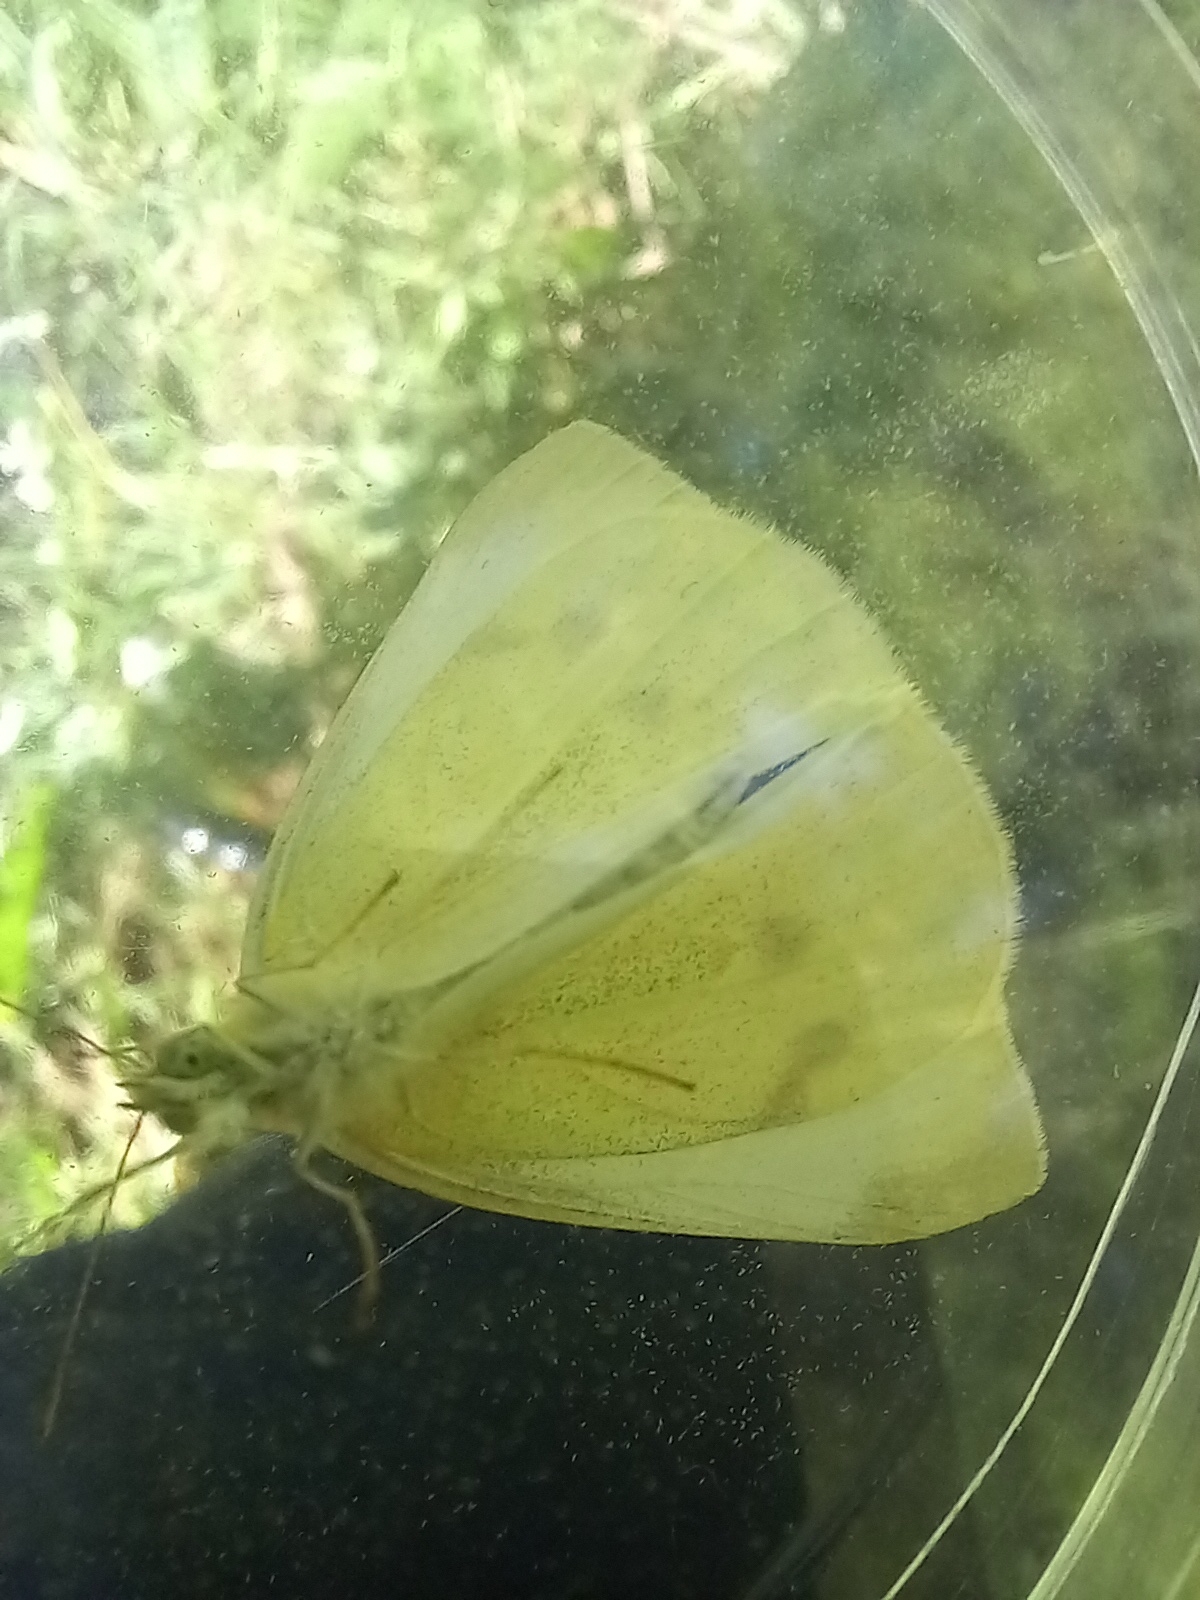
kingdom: Animalia
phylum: Arthropoda
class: Insecta
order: Lepidoptera
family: Pieridae
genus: Pieris
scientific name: Pieris rapae
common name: Small white
